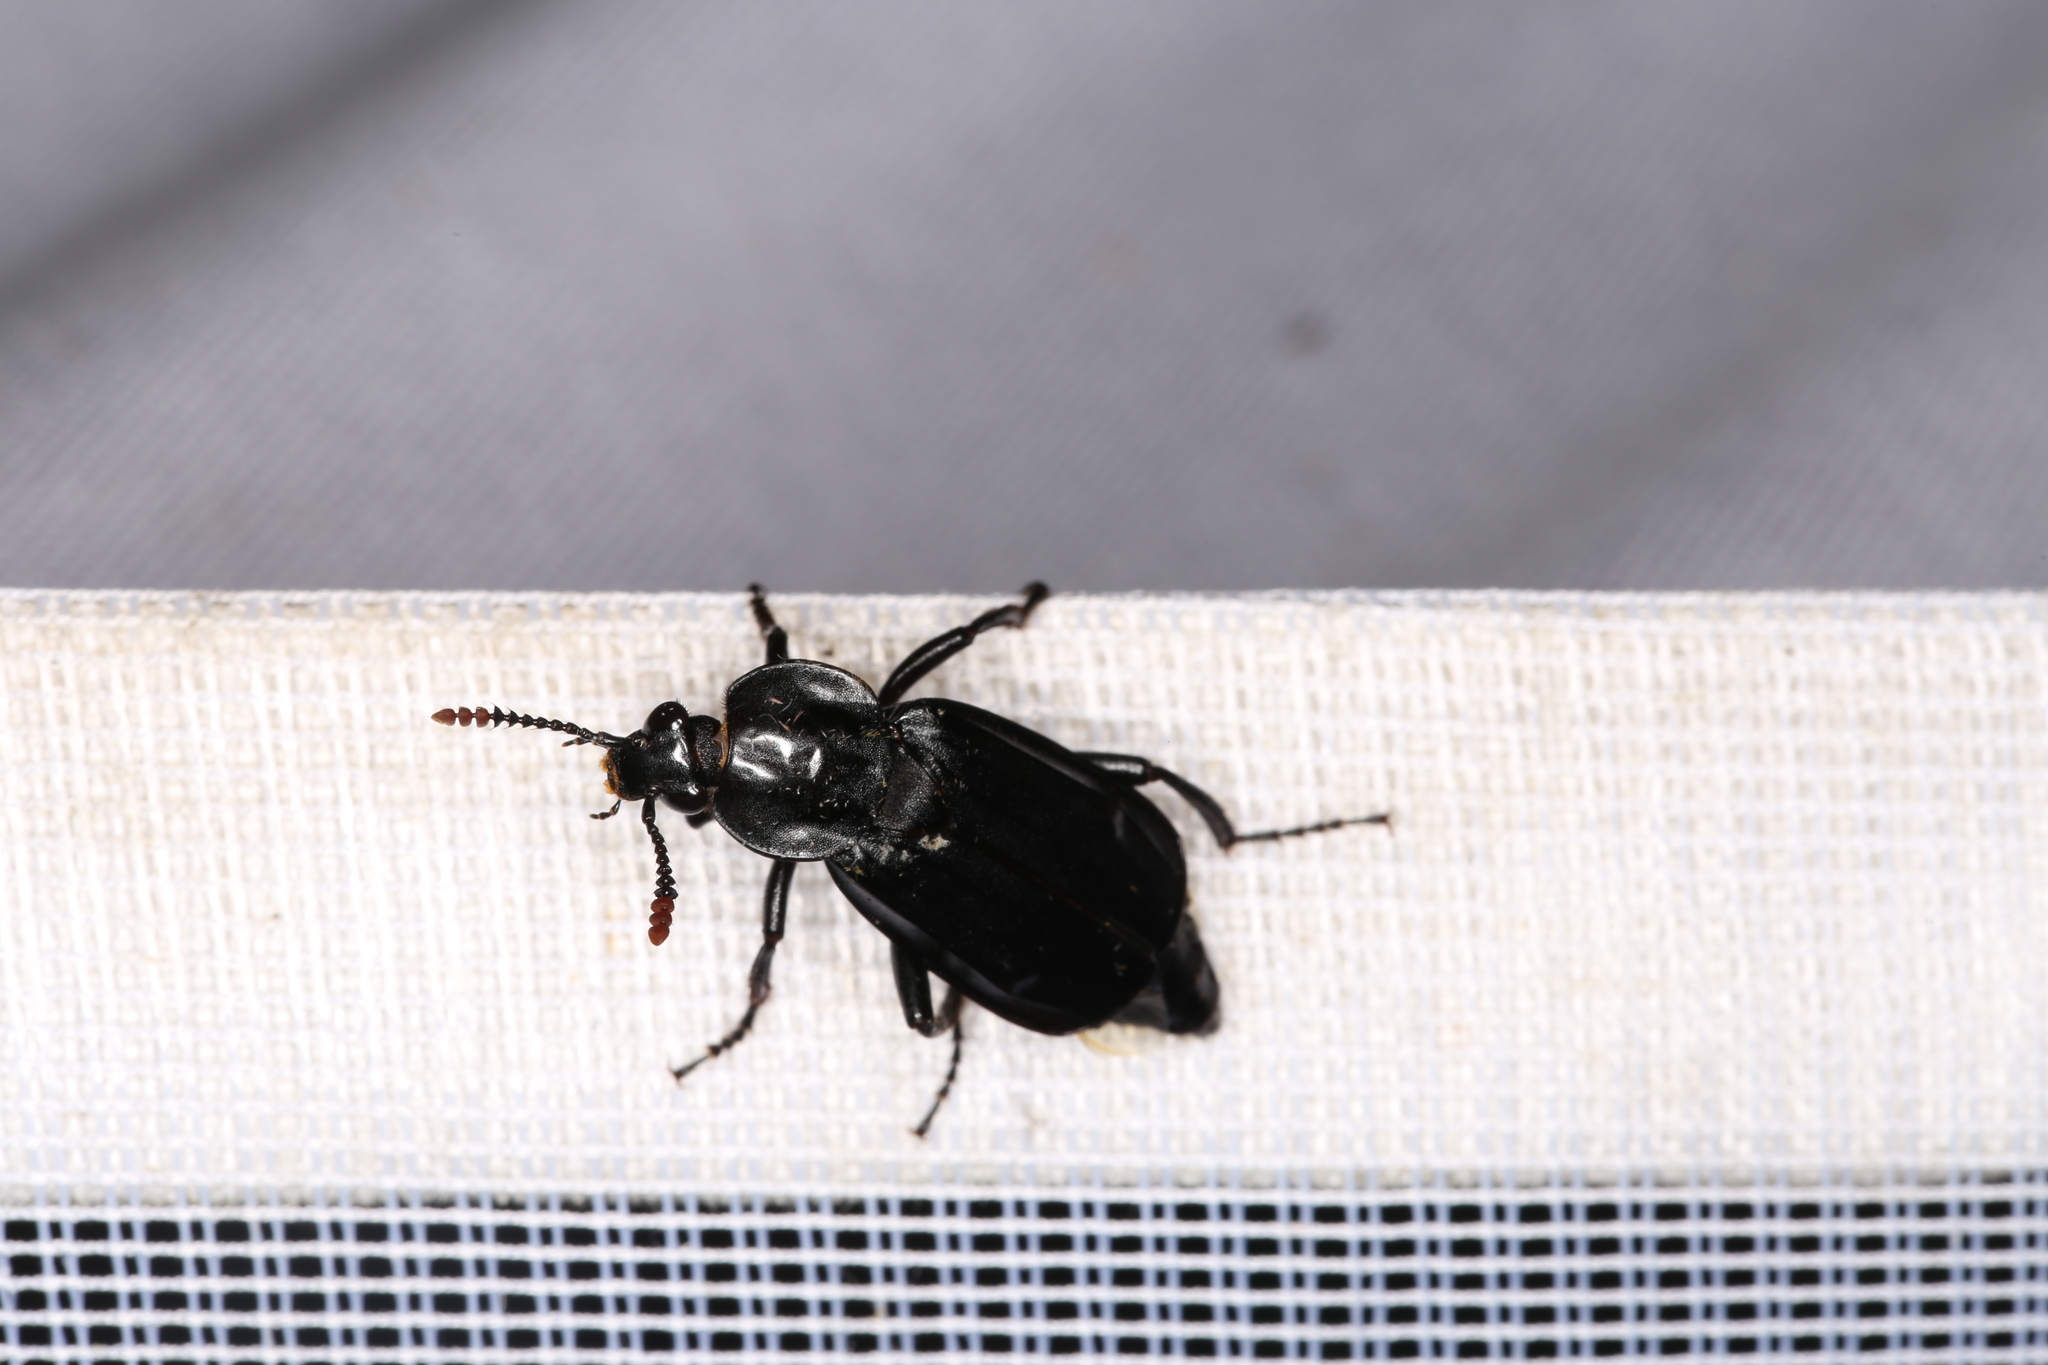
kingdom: Animalia
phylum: Arthropoda
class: Insecta
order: Coleoptera
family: Staphylinidae
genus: Necrodes
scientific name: Necrodes littoralis
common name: Shore sexton beetle
